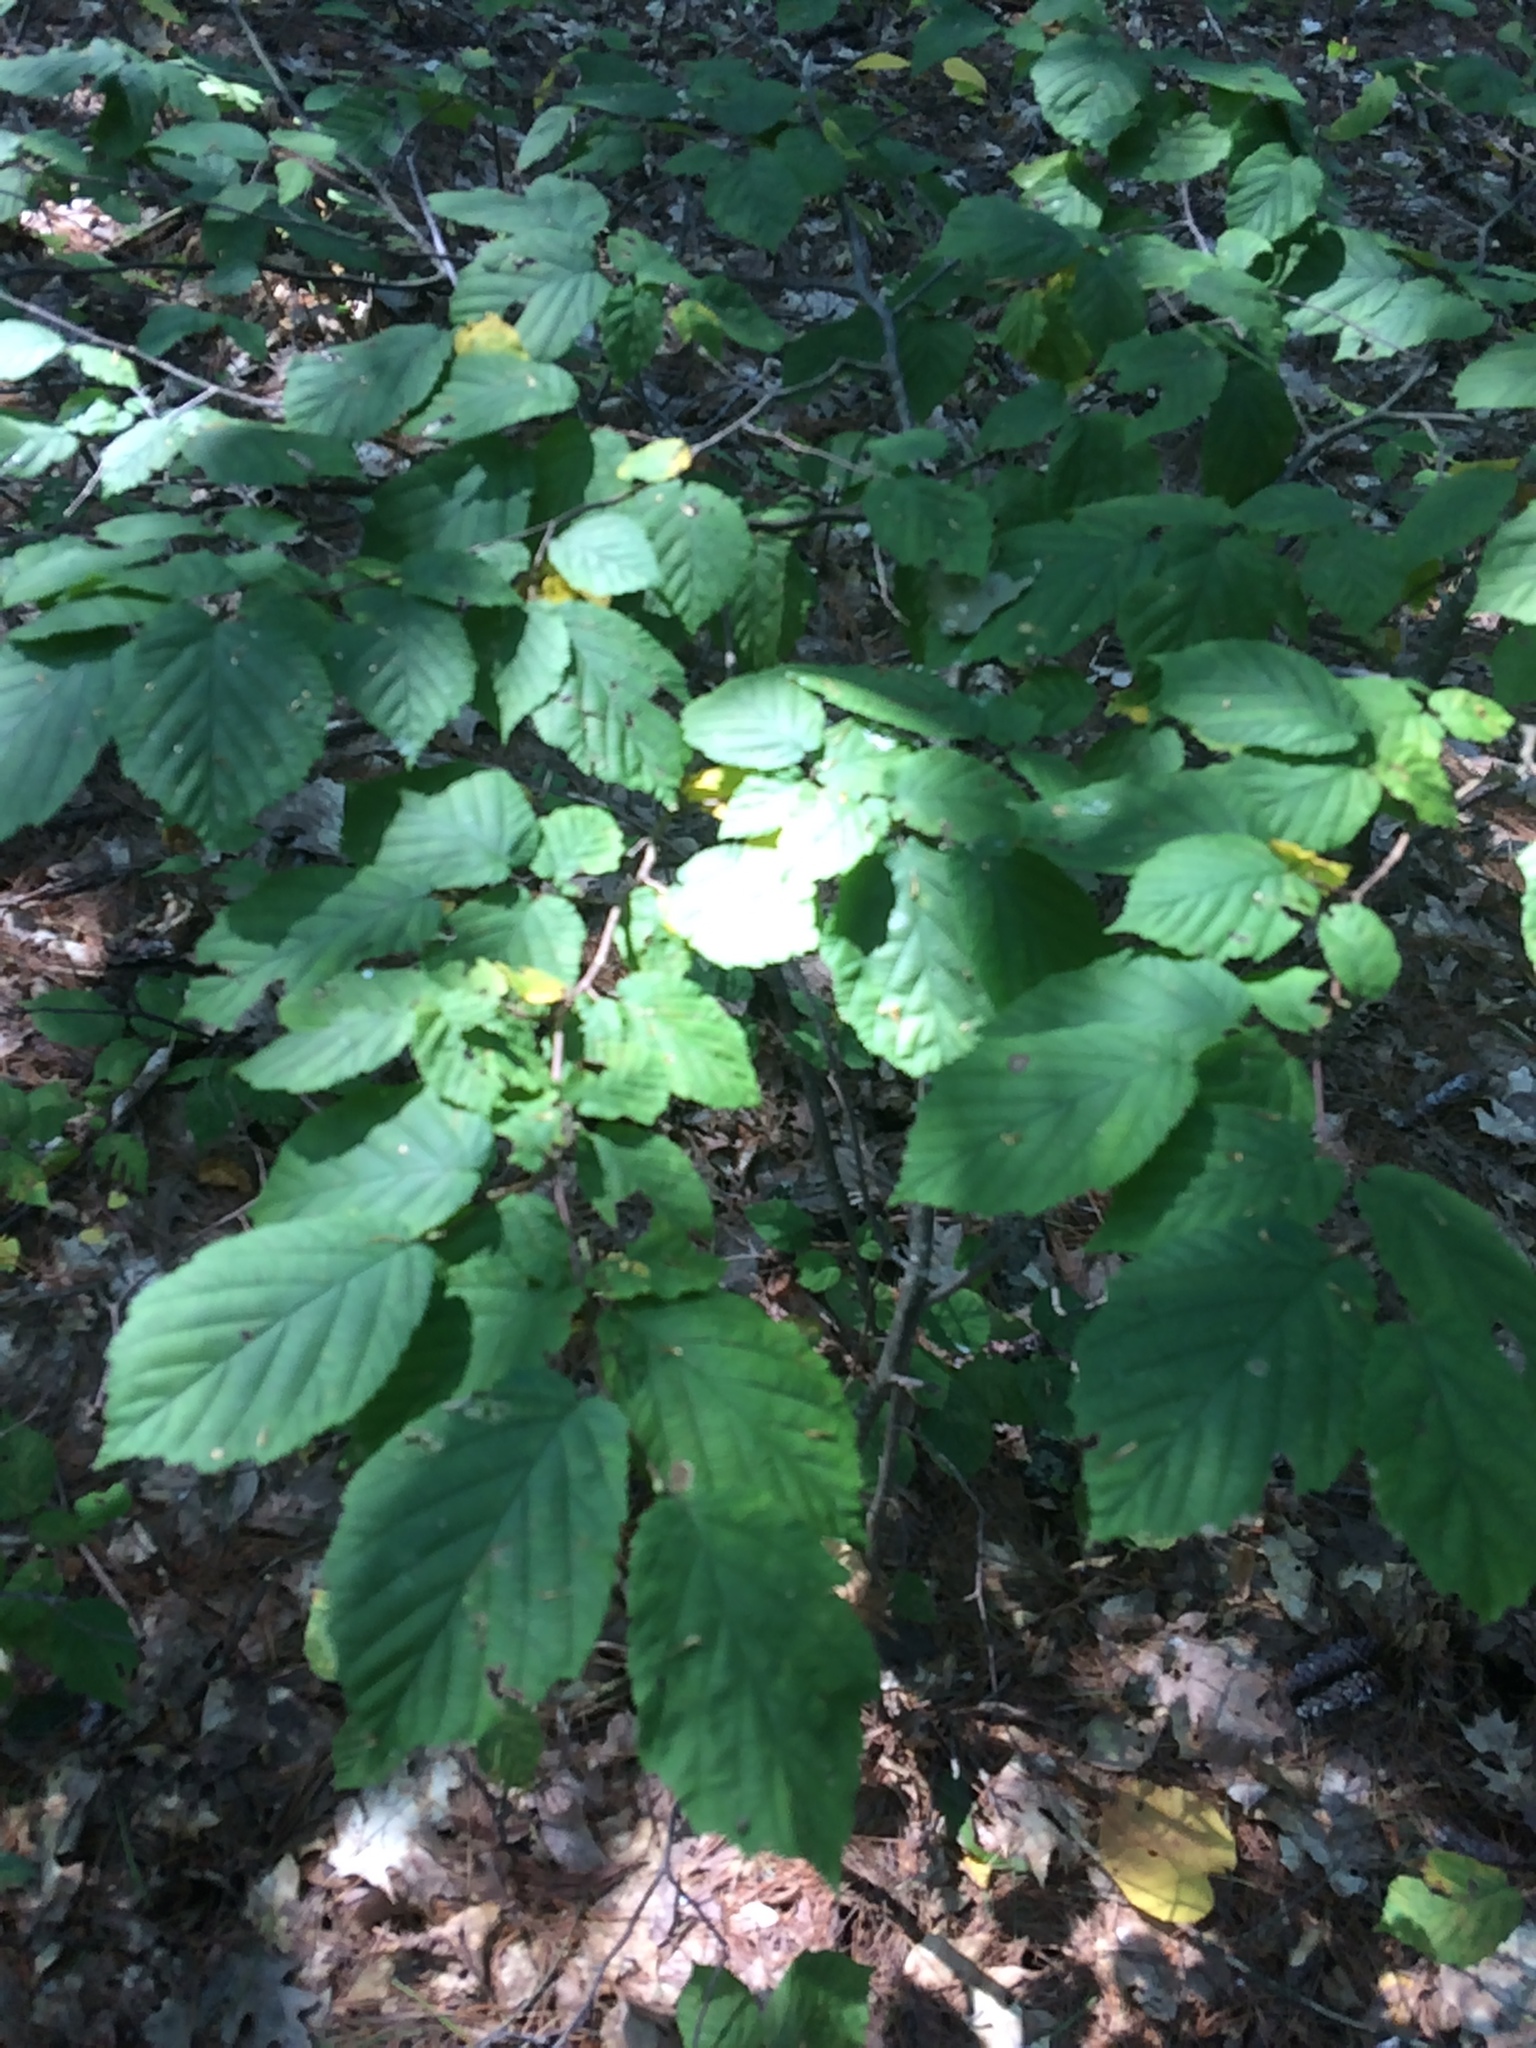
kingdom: Plantae
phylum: Tracheophyta
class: Magnoliopsida
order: Fagales
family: Betulaceae
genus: Corylus
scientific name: Corylus cornuta
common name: Beaked hazel
